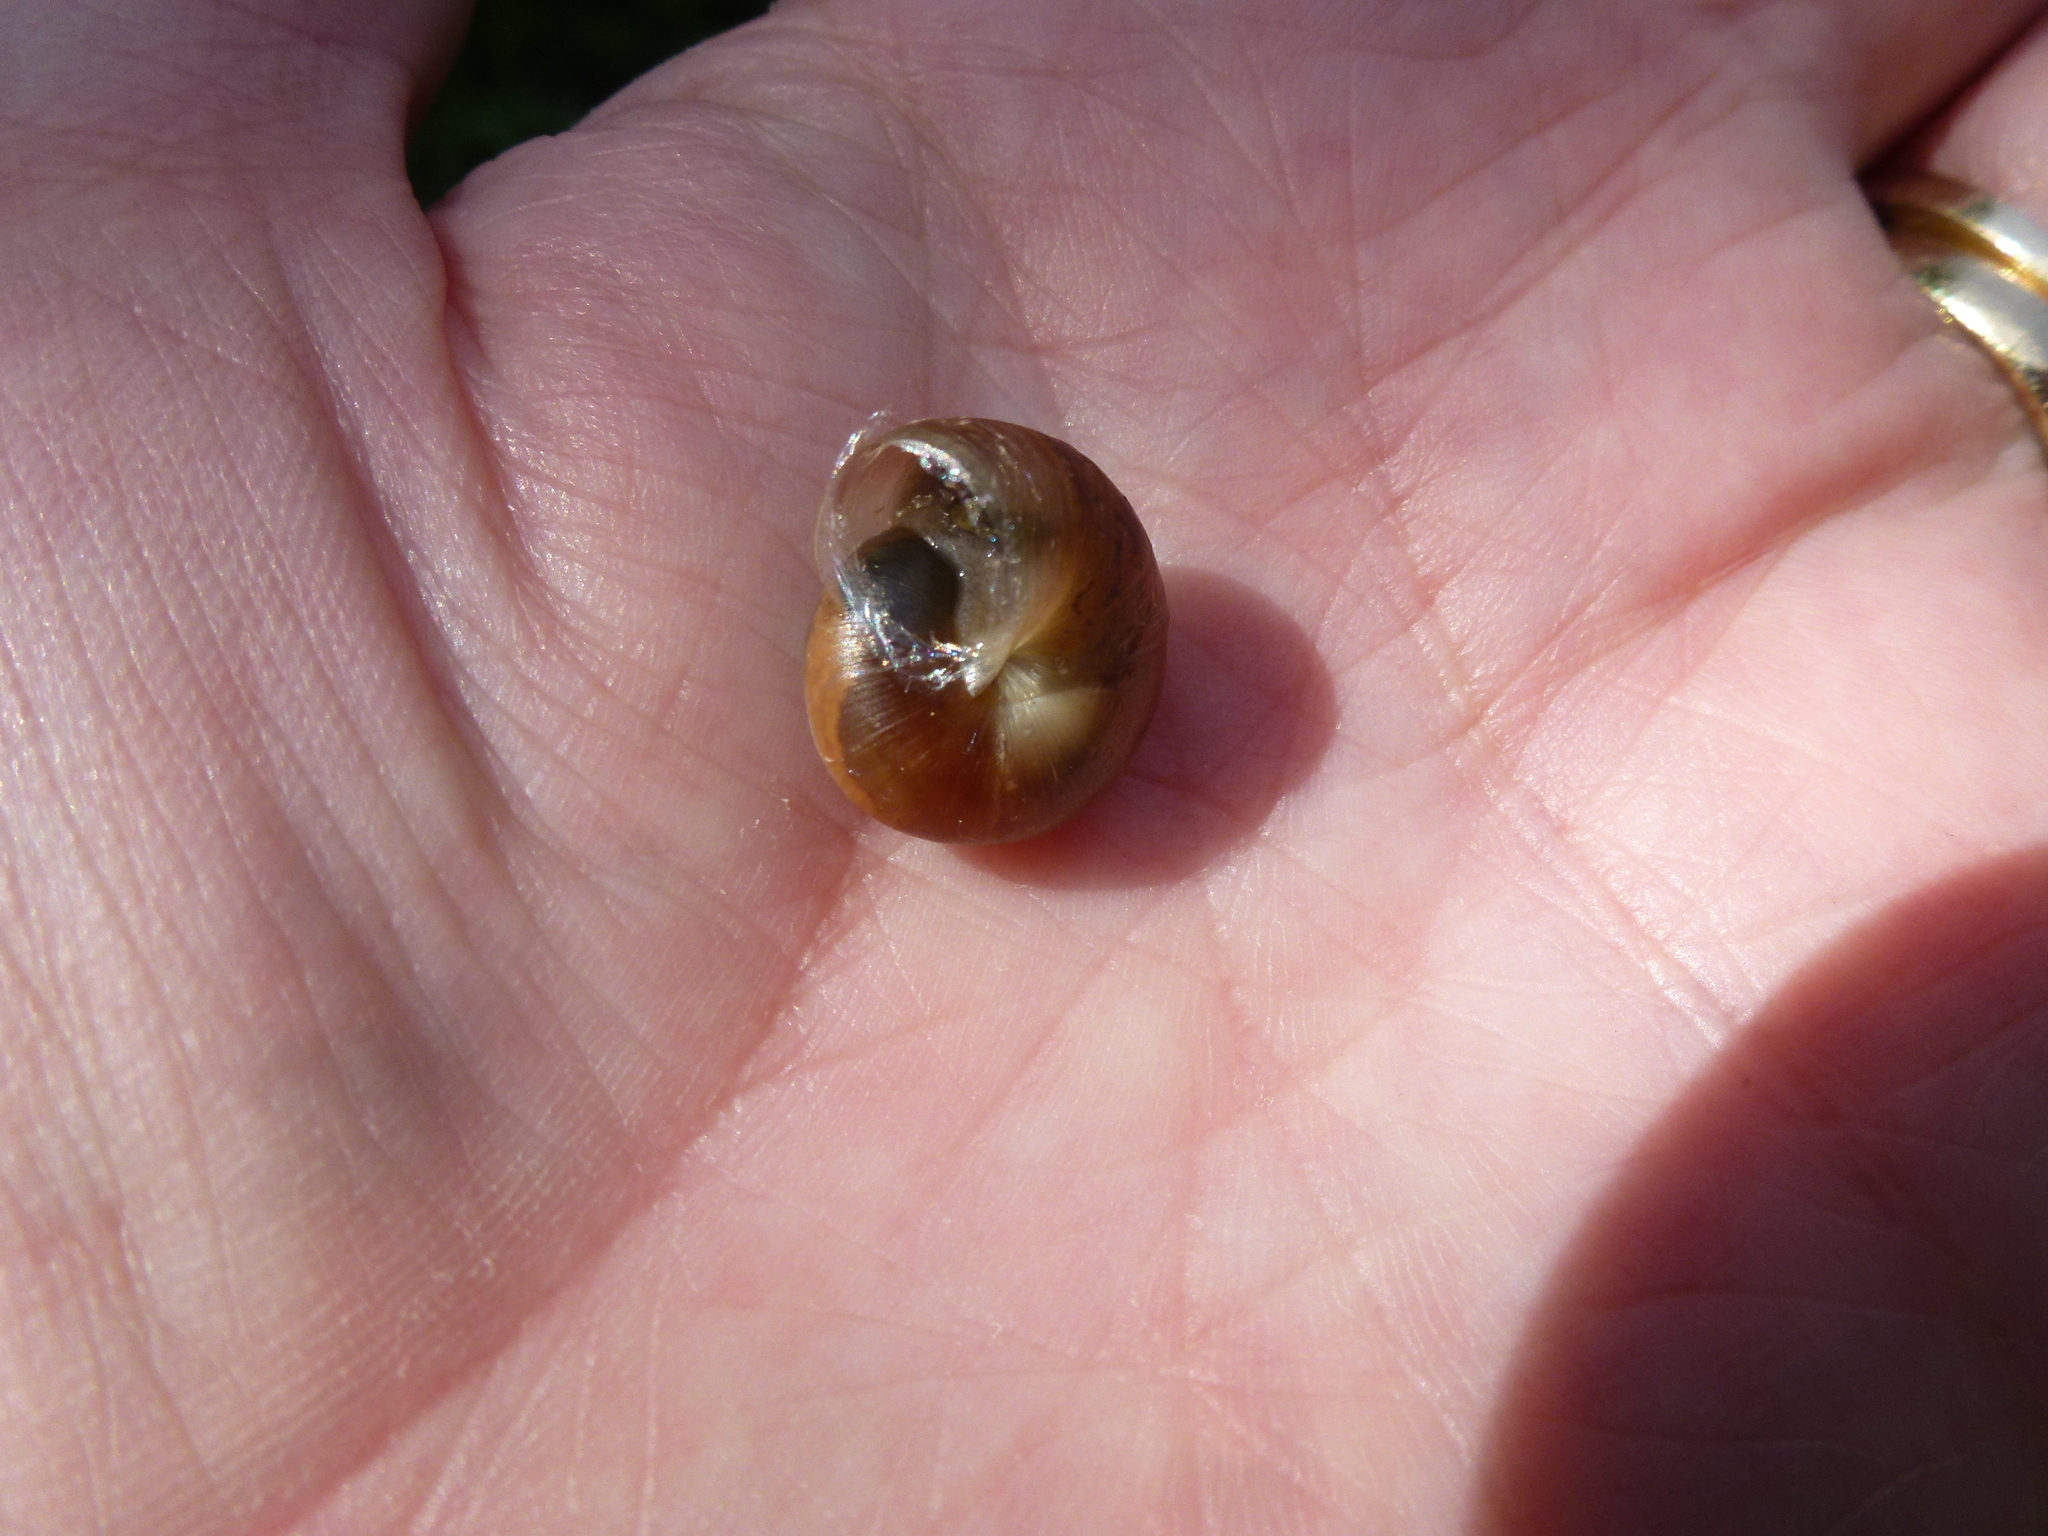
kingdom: Animalia
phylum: Mollusca
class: Gastropoda
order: Stylommatophora
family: Hygromiidae
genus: Monacha
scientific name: Monacha cantiana
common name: Kentish snail
